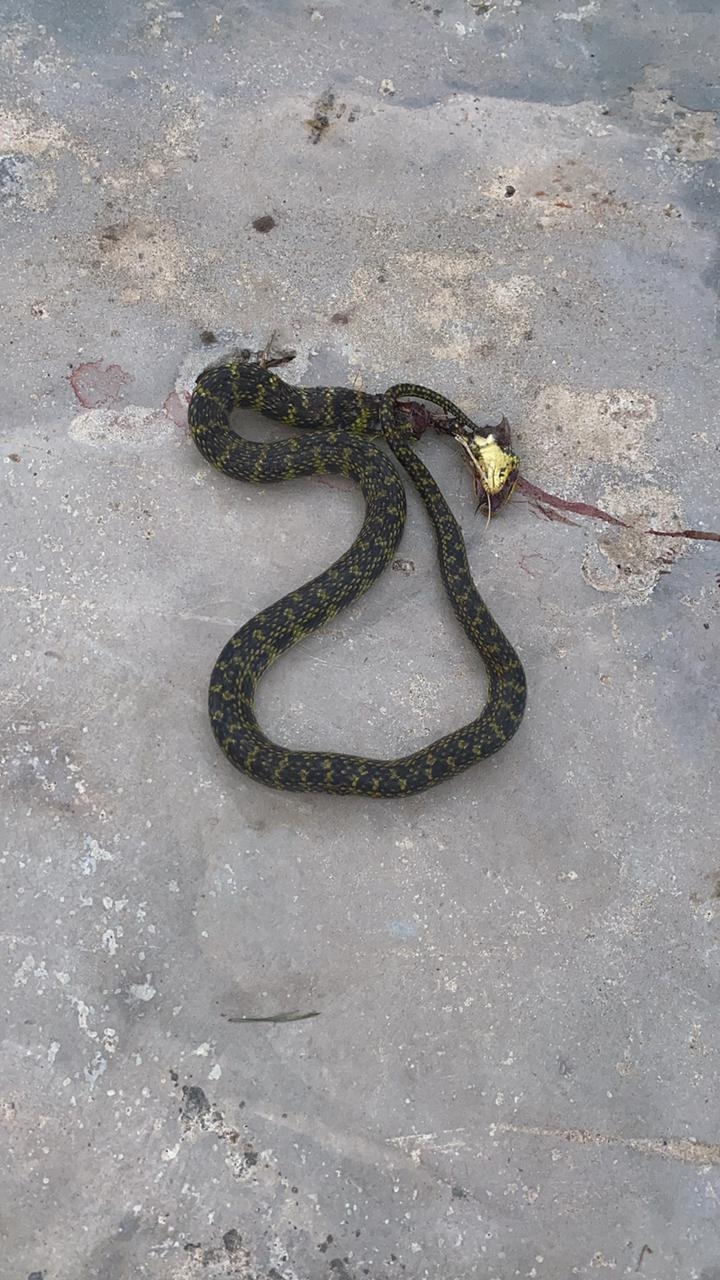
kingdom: Animalia
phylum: Chordata
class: Squamata
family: Colubridae
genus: Erythrolamprus
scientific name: Erythrolamprus poecilogyrus
